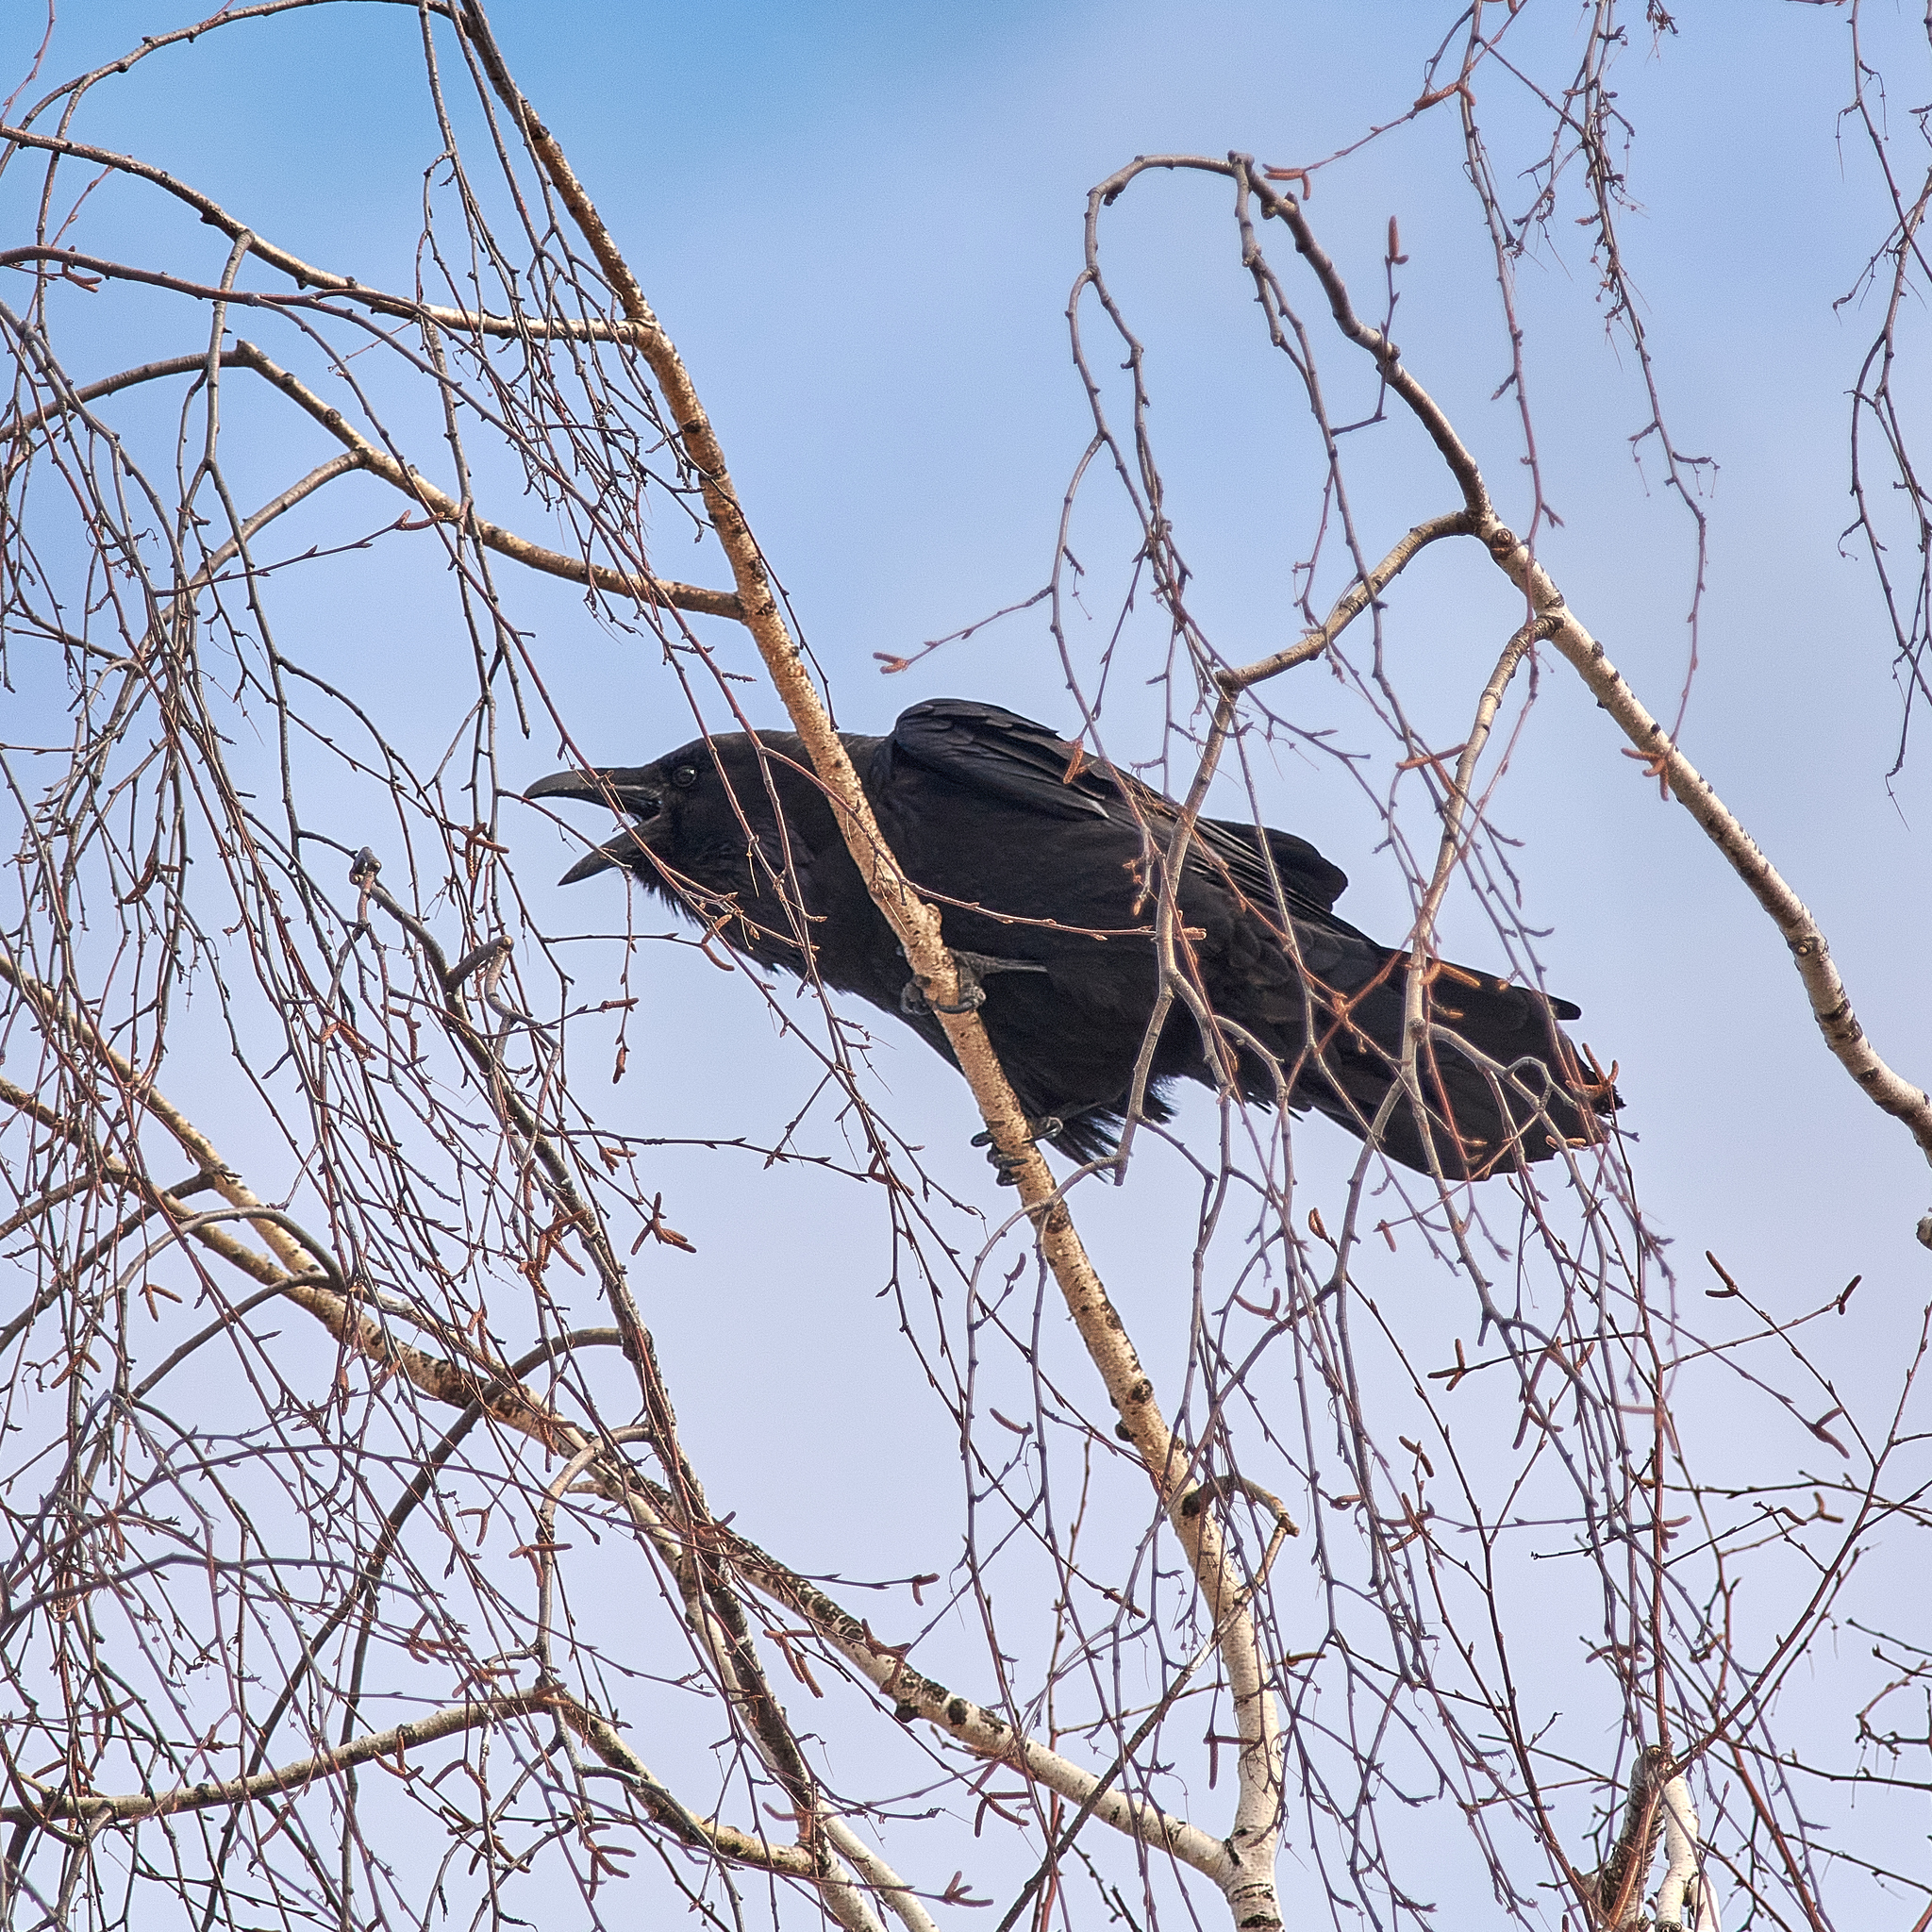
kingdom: Animalia
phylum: Chordata
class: Aves
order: Passeriformes
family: Corvidae
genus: Corvus
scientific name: Corvus corax
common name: Common raven
